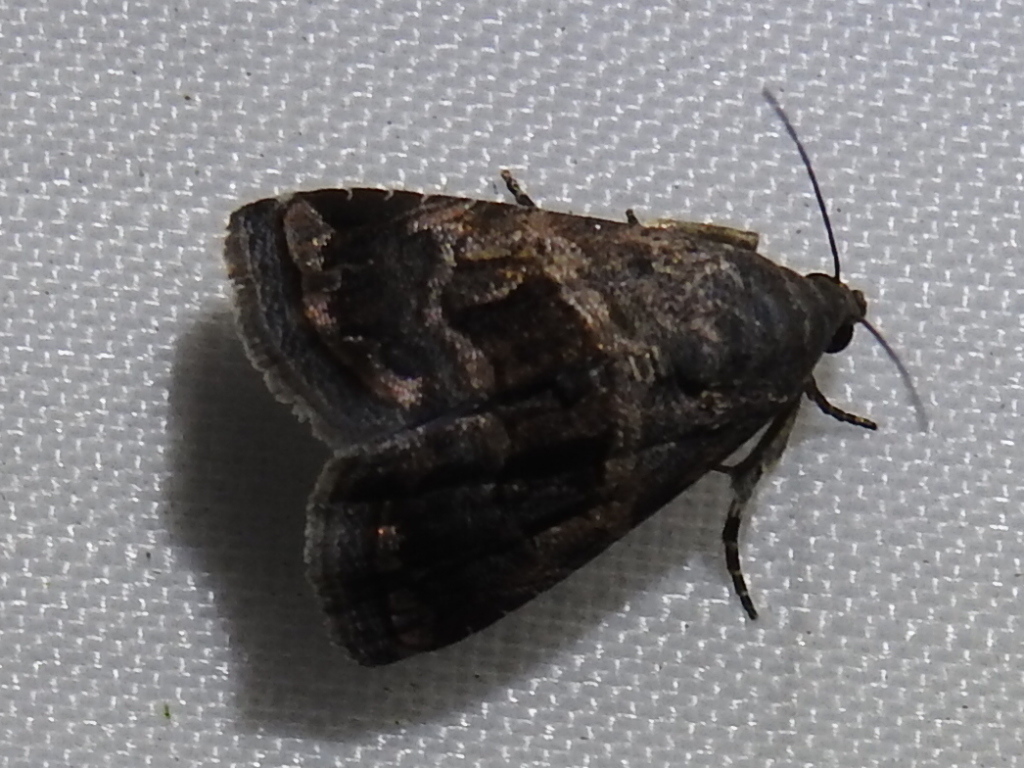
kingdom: Animalia
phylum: Arthropoda
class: Insecta
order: Lepidoptera
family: Noctuidae
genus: Tripudia
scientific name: Tripudia quadrifera
